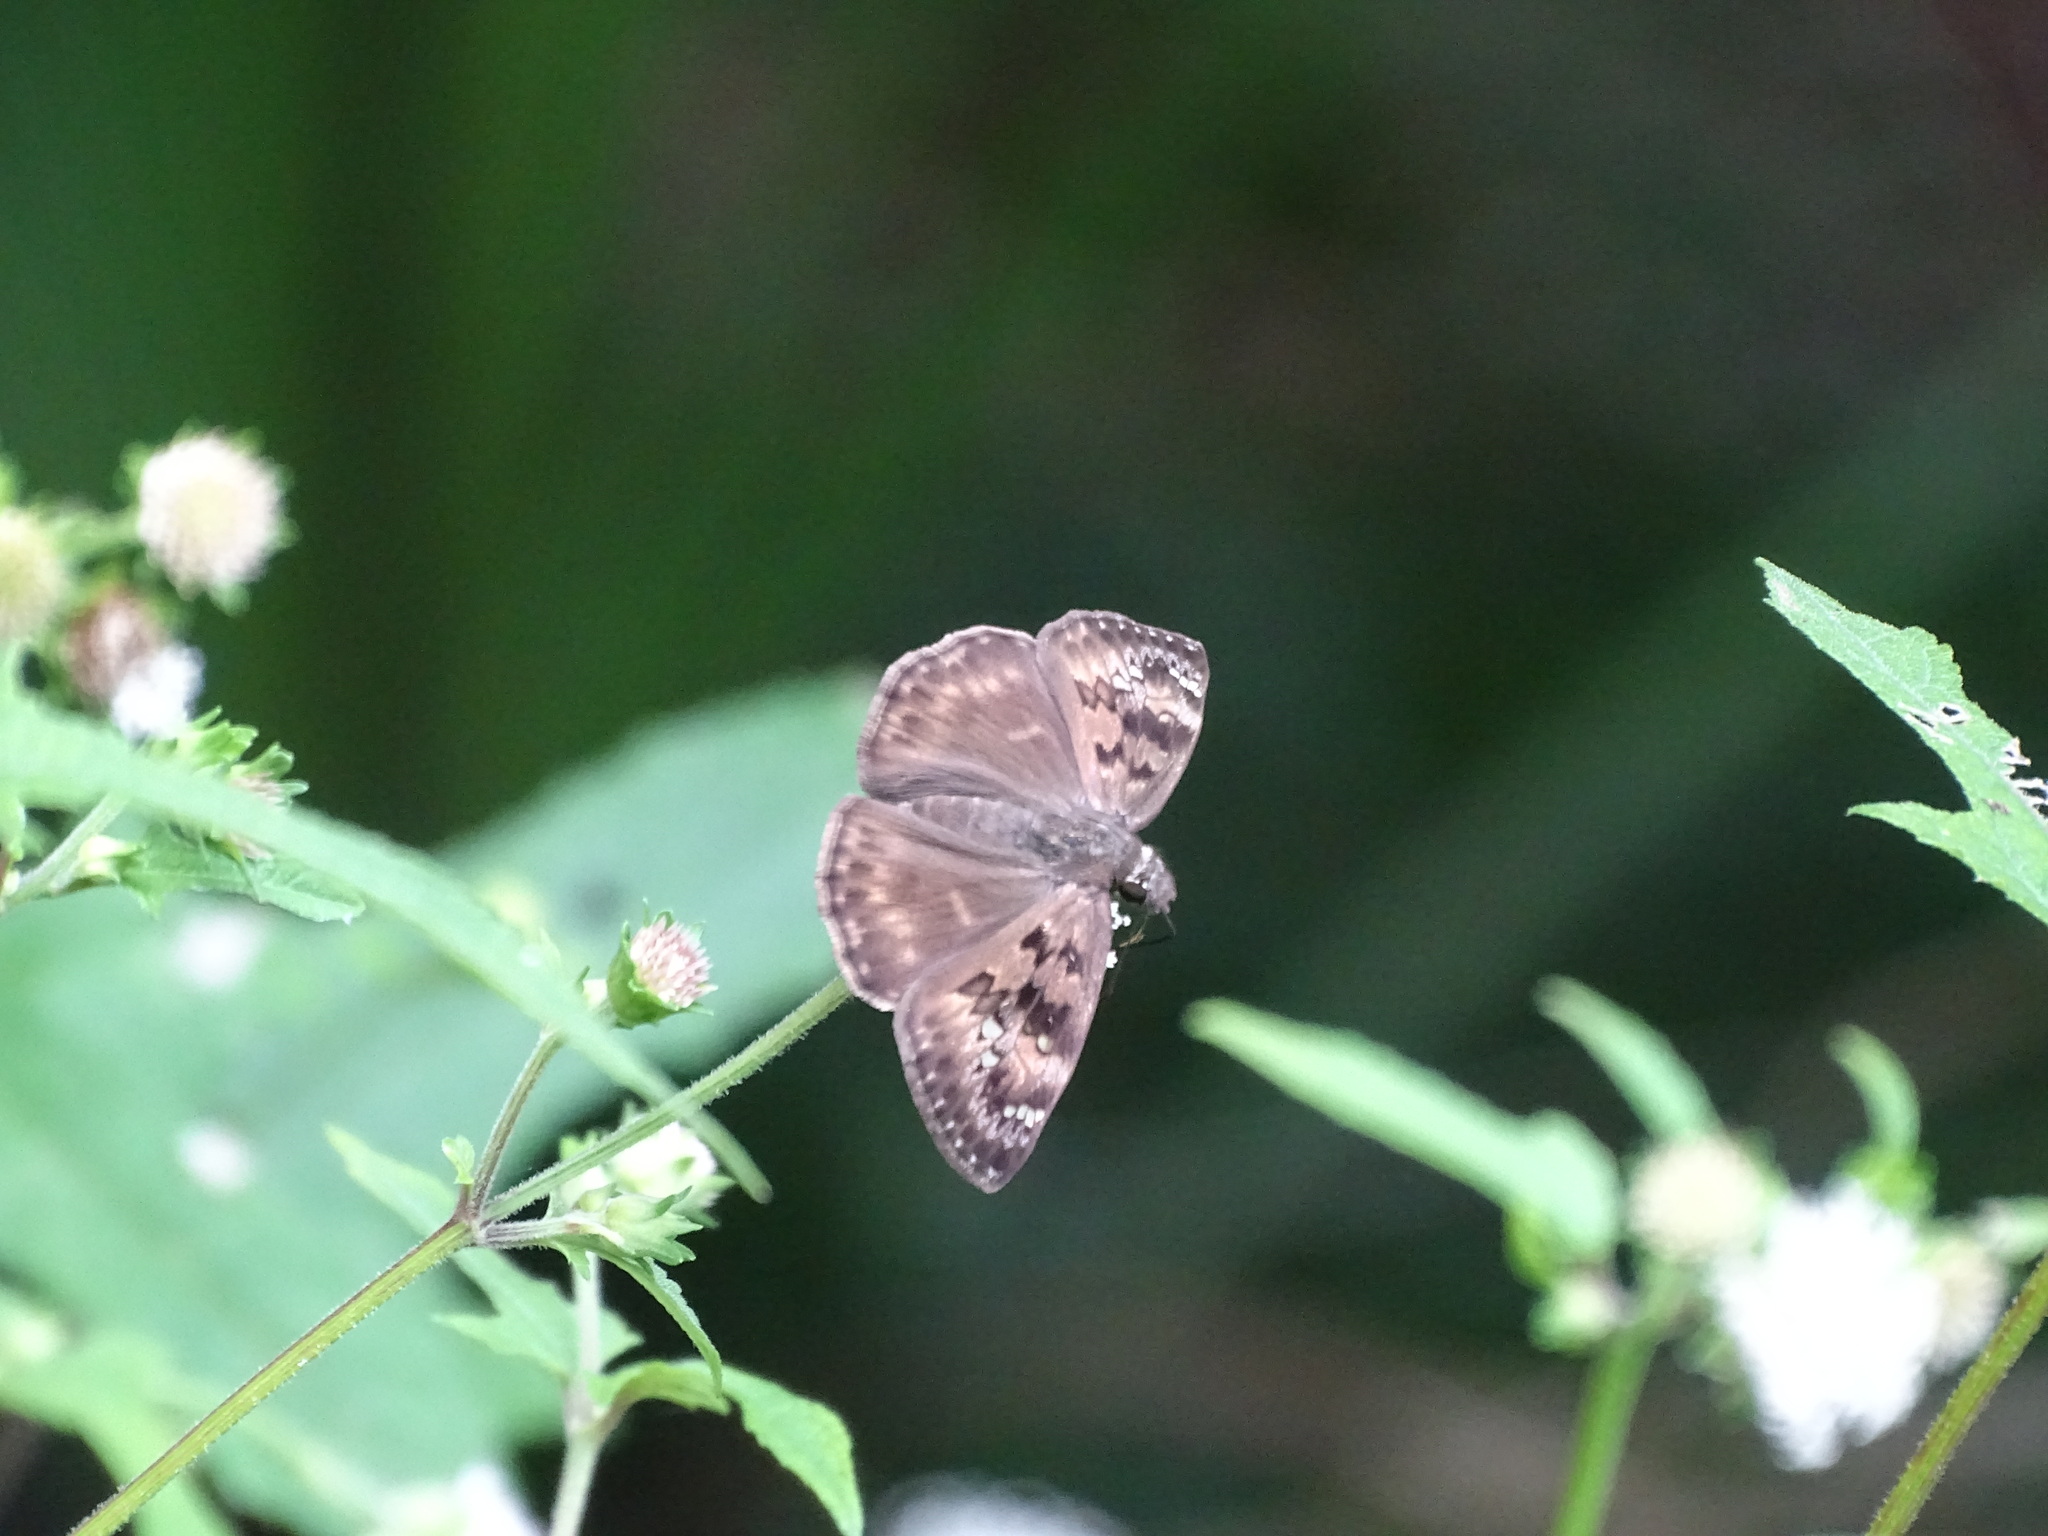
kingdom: Animalia
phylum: Arthropoda
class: Insecta
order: Lepidoptera
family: Hesperiidae
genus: Erynnis
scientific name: Erynnis horatius
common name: Horace's duskywing
